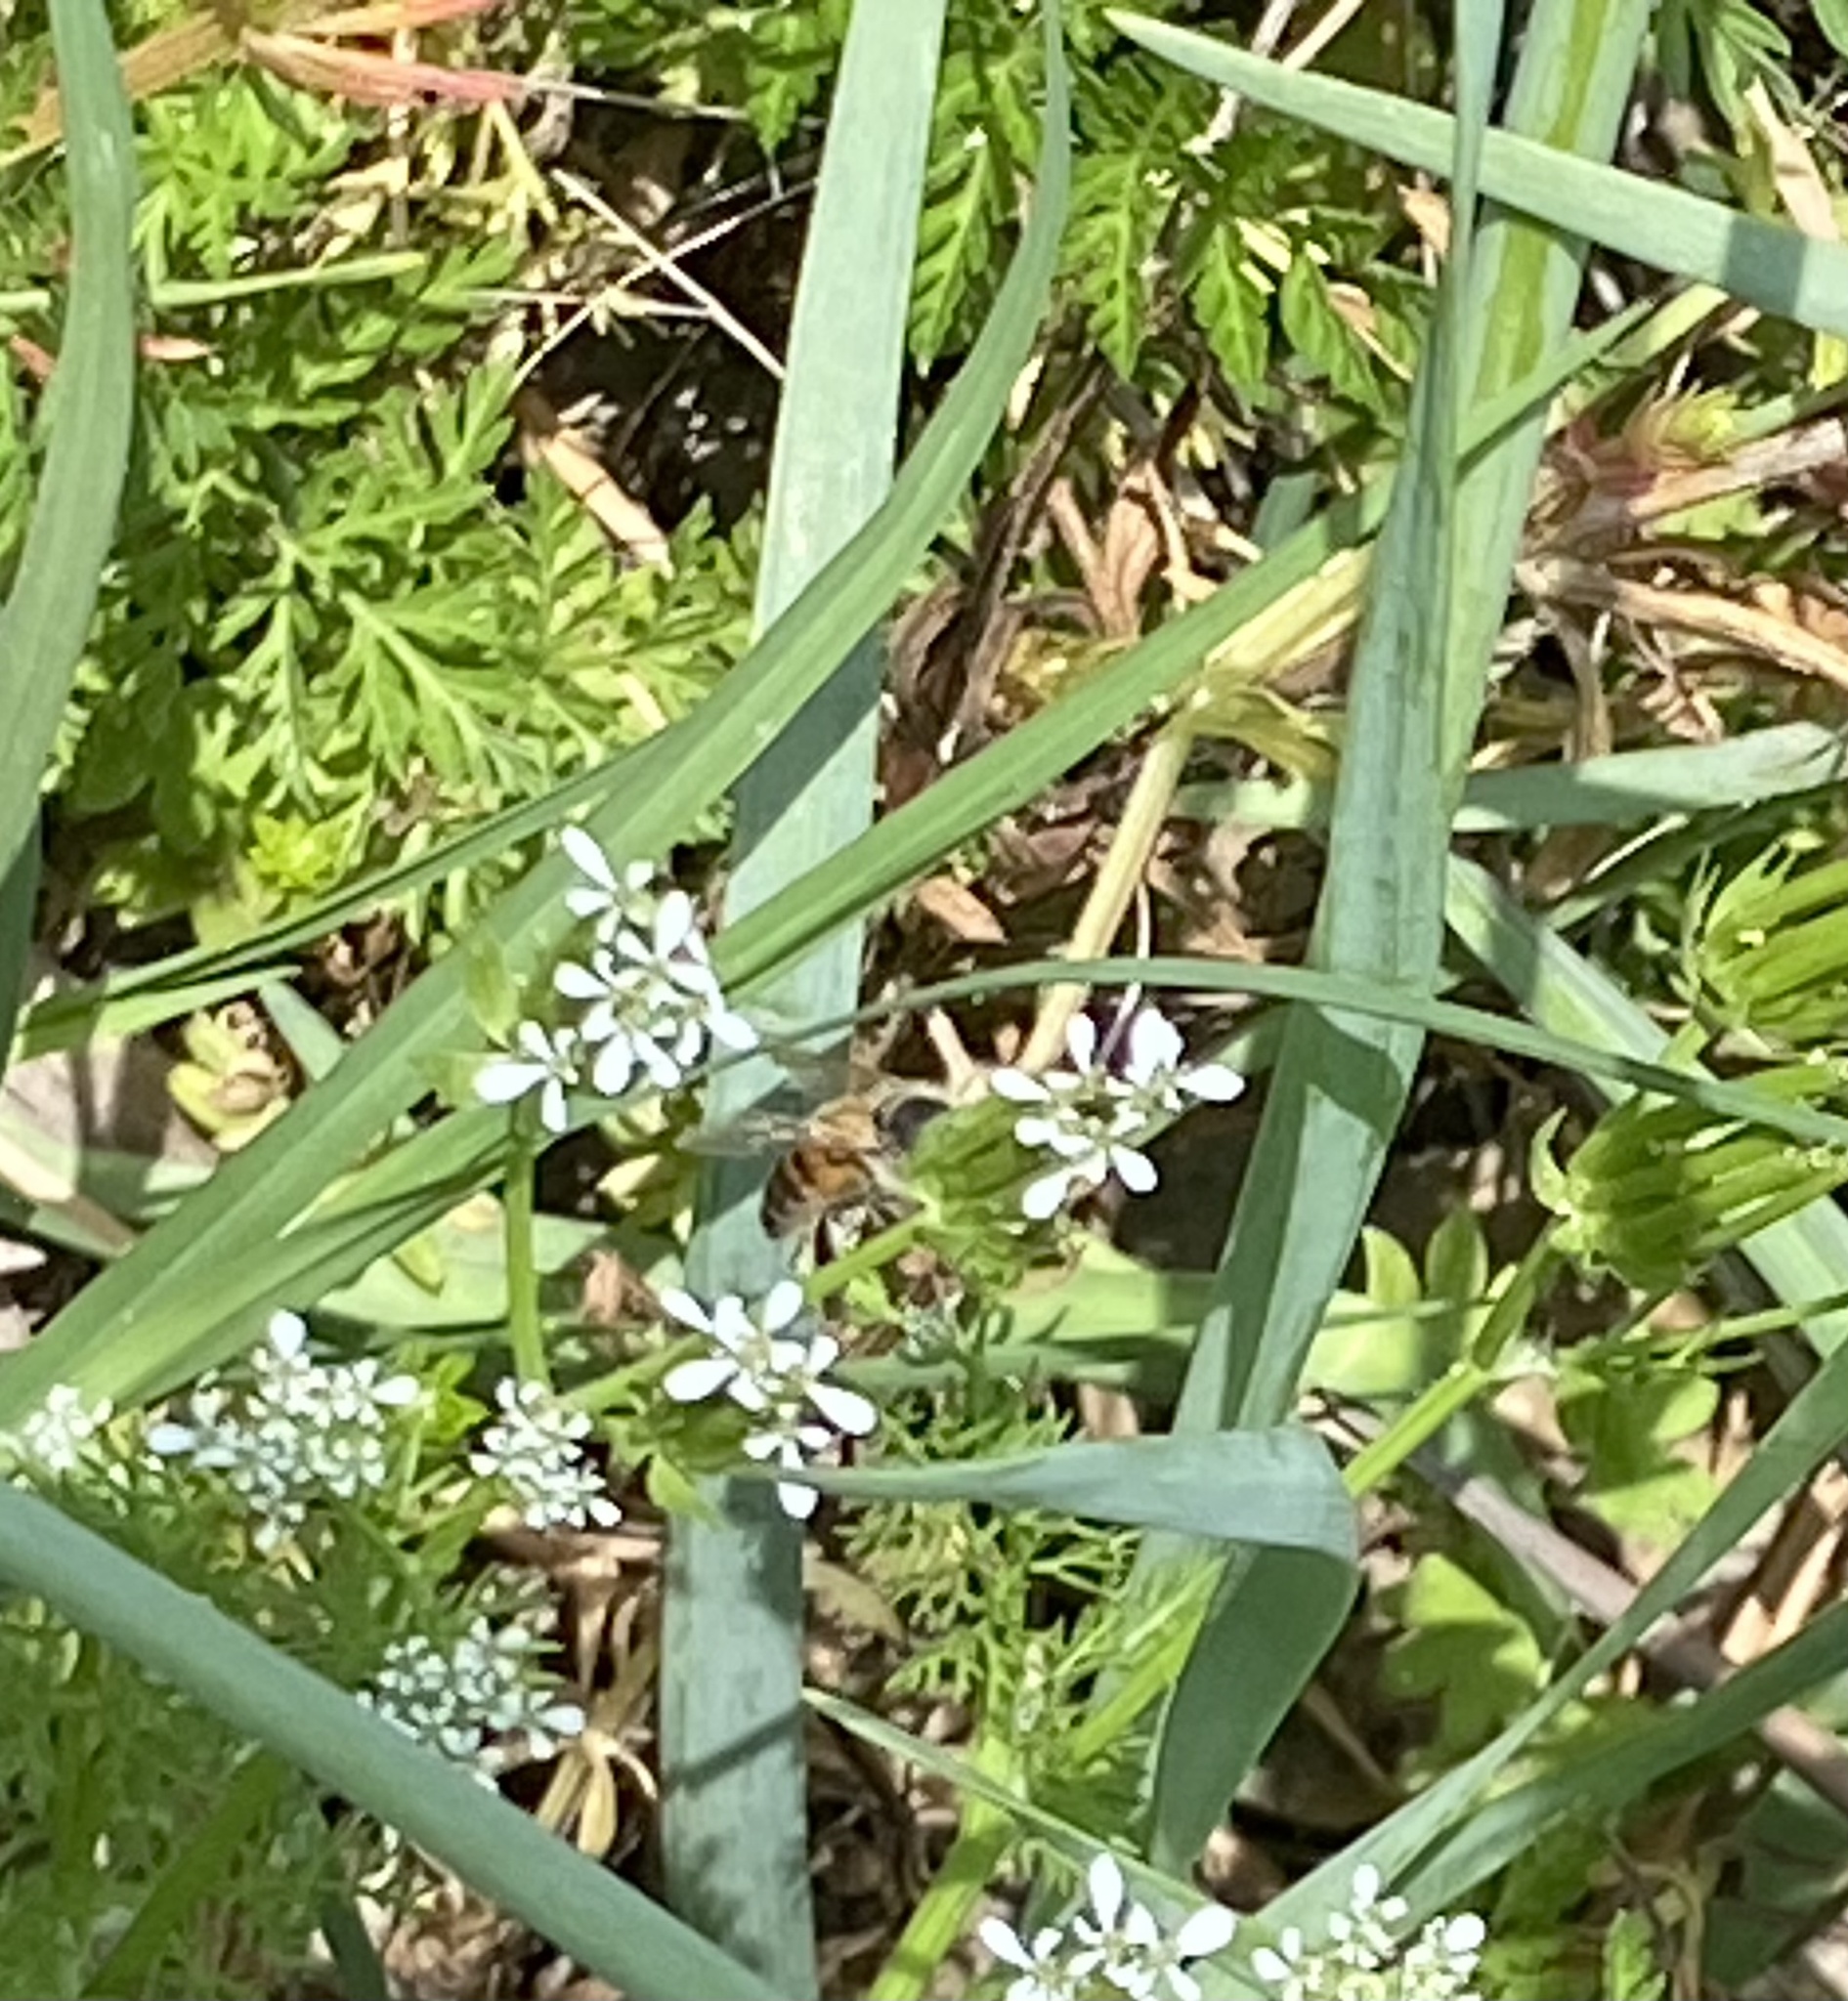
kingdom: Plantae
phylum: Tracheophyta
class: Liliopsida
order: Asparagales
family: Amaryllidaceae
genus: Allium
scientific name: Allium canadense
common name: Meadow garlic
